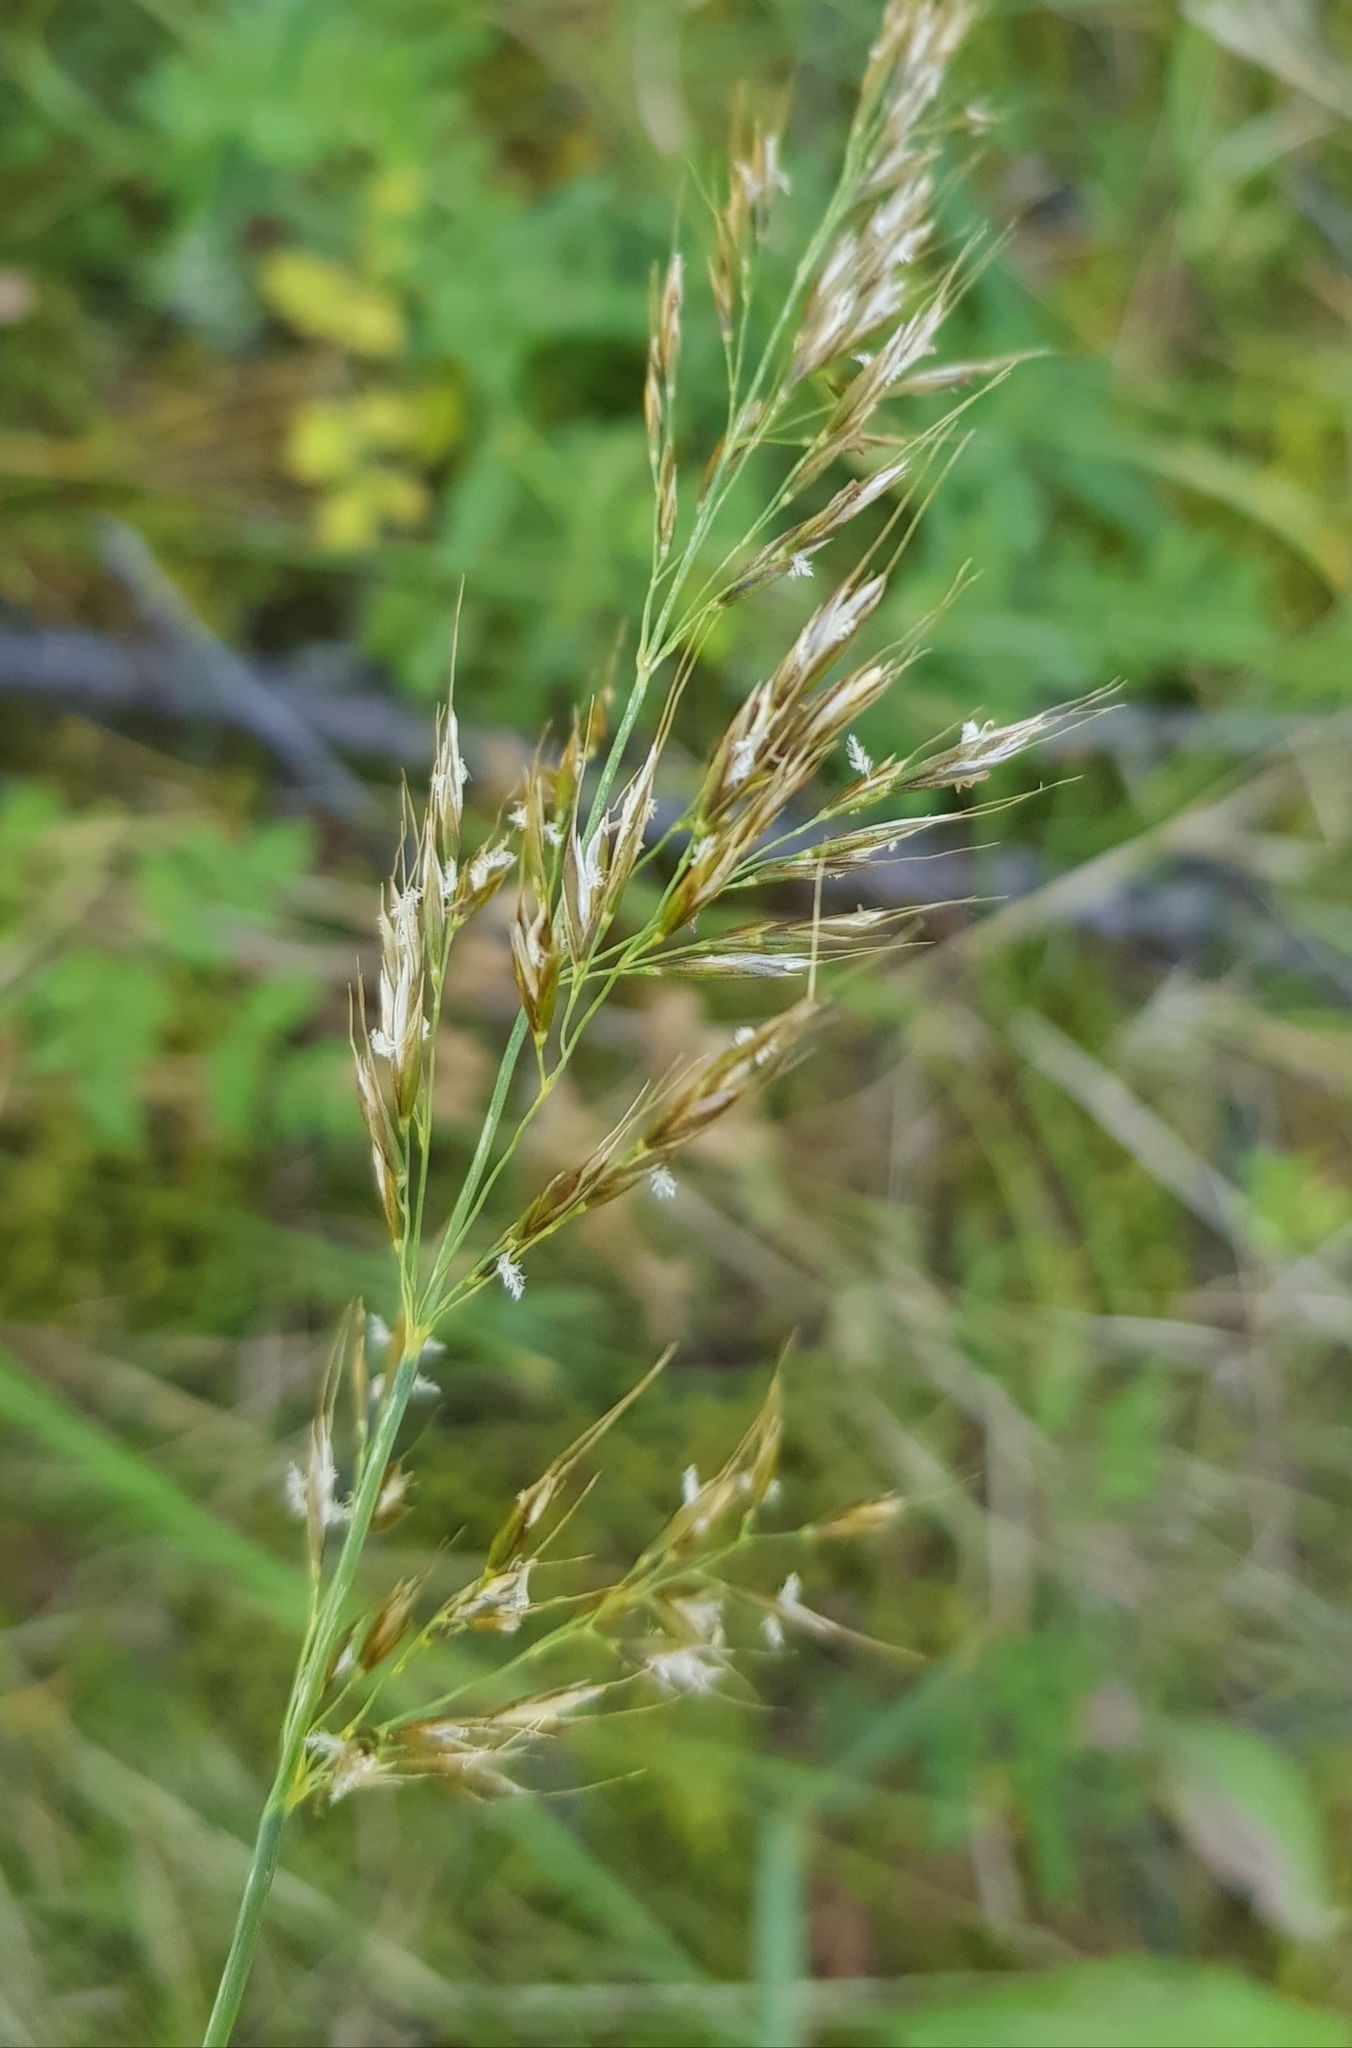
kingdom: Plantae
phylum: Tracheophyta
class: Liliopsida
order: Poales
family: Poaceae
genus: Achnatherum
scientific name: Achnatherum sibiricum
